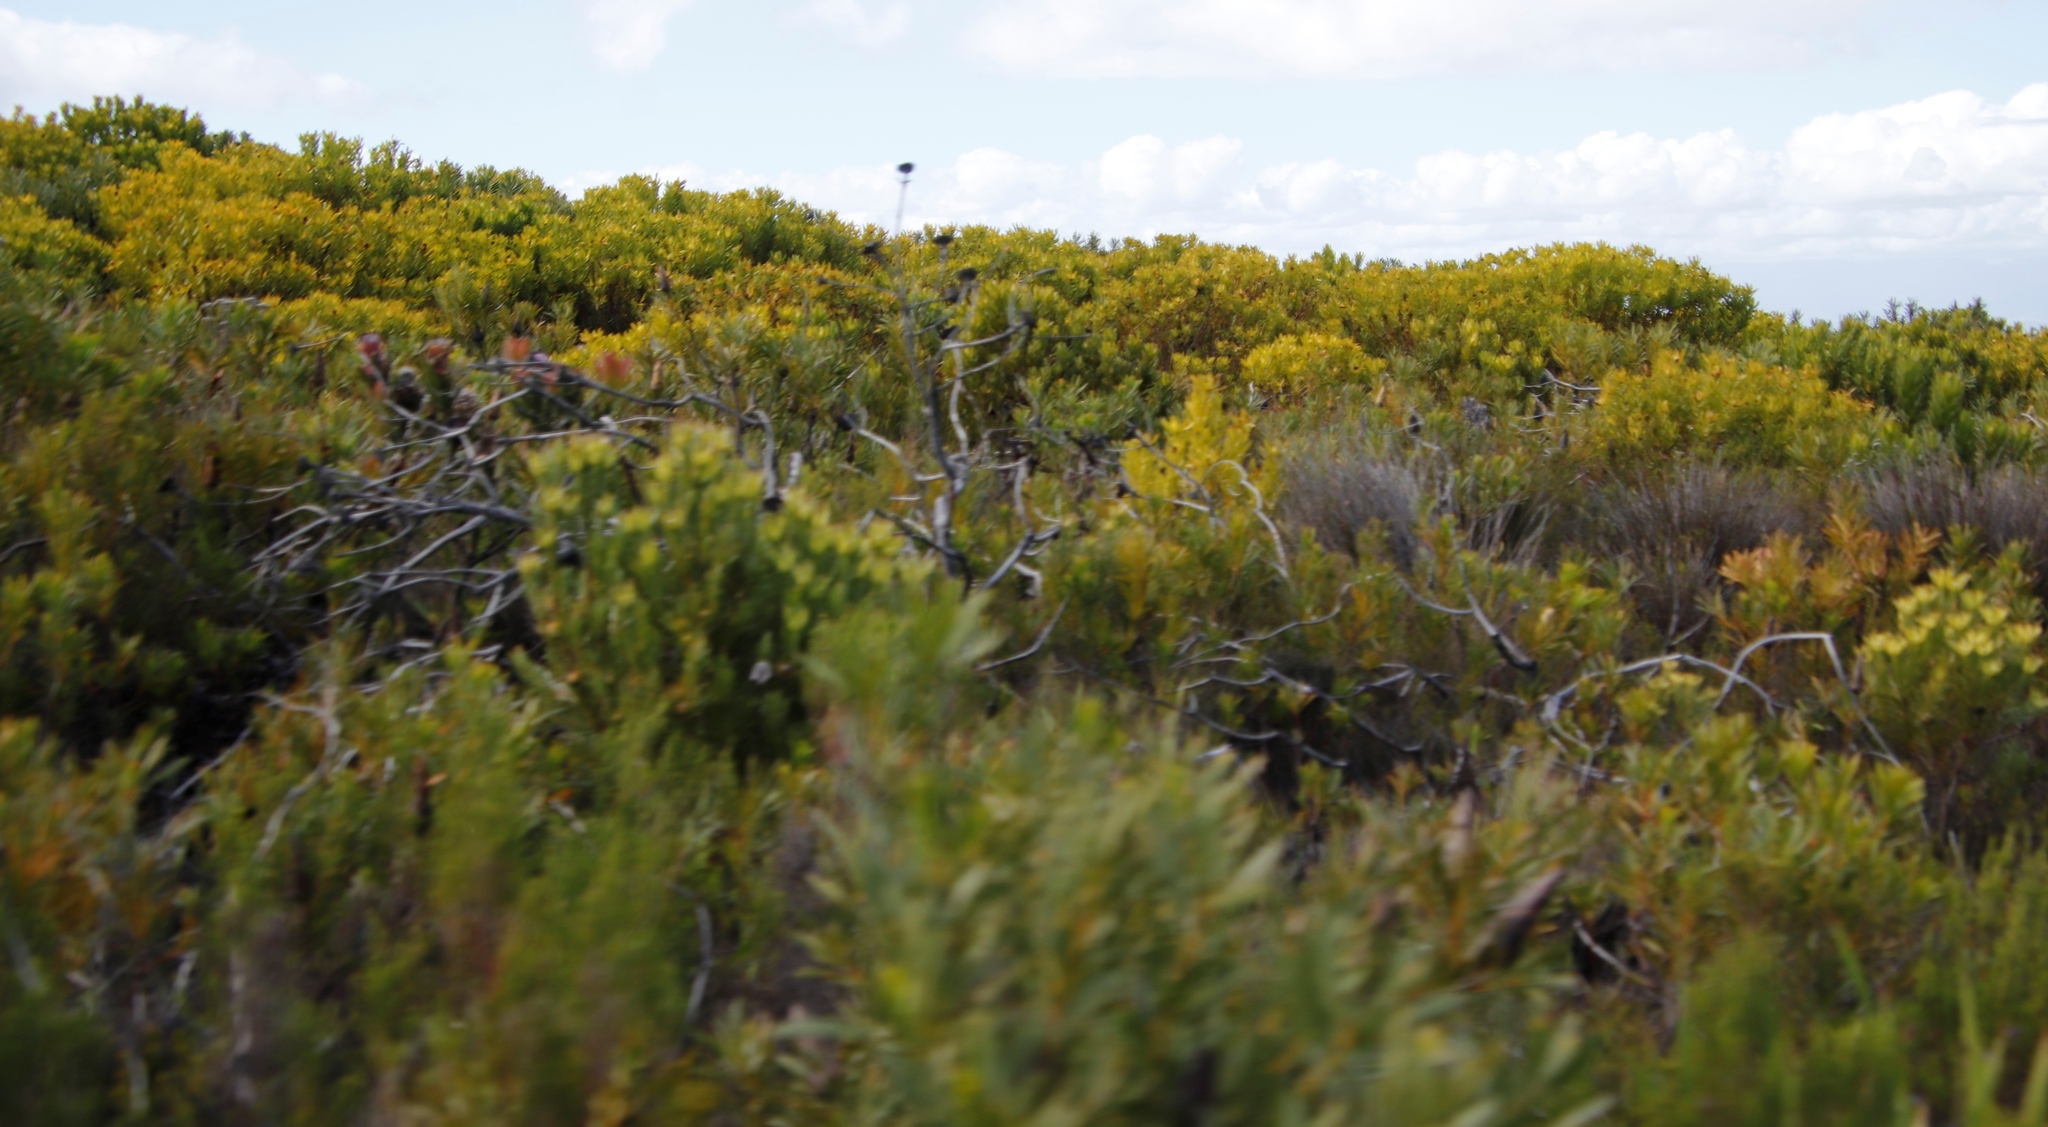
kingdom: Plantae
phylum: Tracheophyta
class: Magnoliopsida
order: Proteales
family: Proteaceae
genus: Leucadendron
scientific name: Leucadendron xanthoconus
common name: Sickle-leaf conebush
